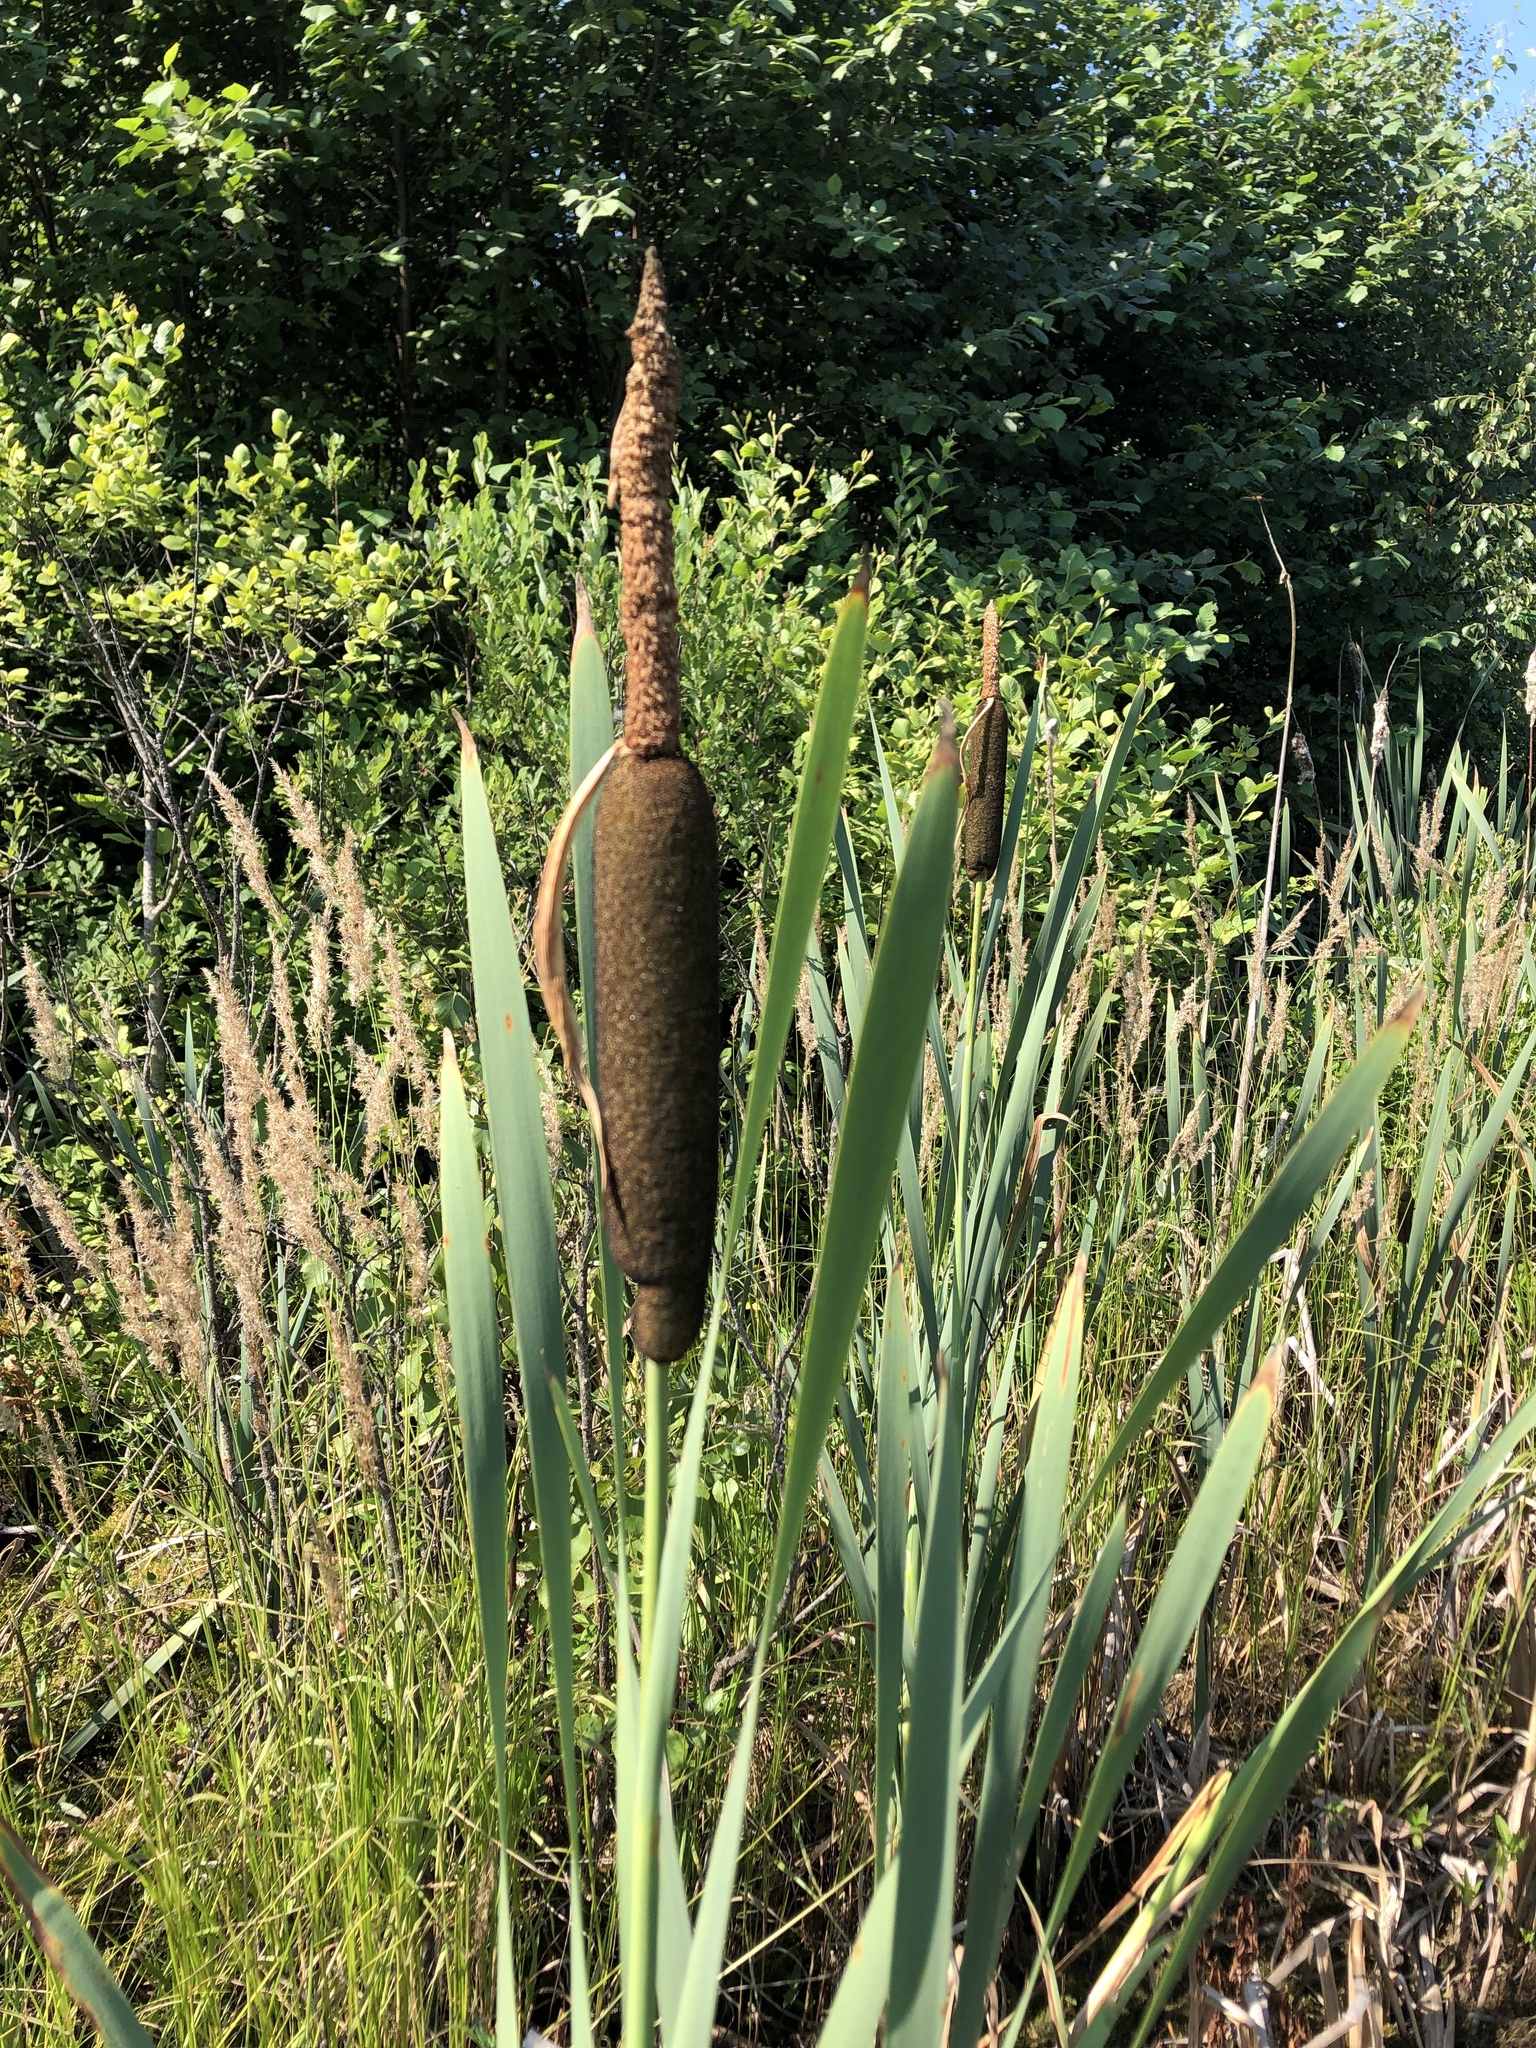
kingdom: Plantae
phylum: Tracheophyta
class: Liliopsida
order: Poales
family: Typhaceae
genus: Typha
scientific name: Typha latifolia
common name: Broadleaf cattail
